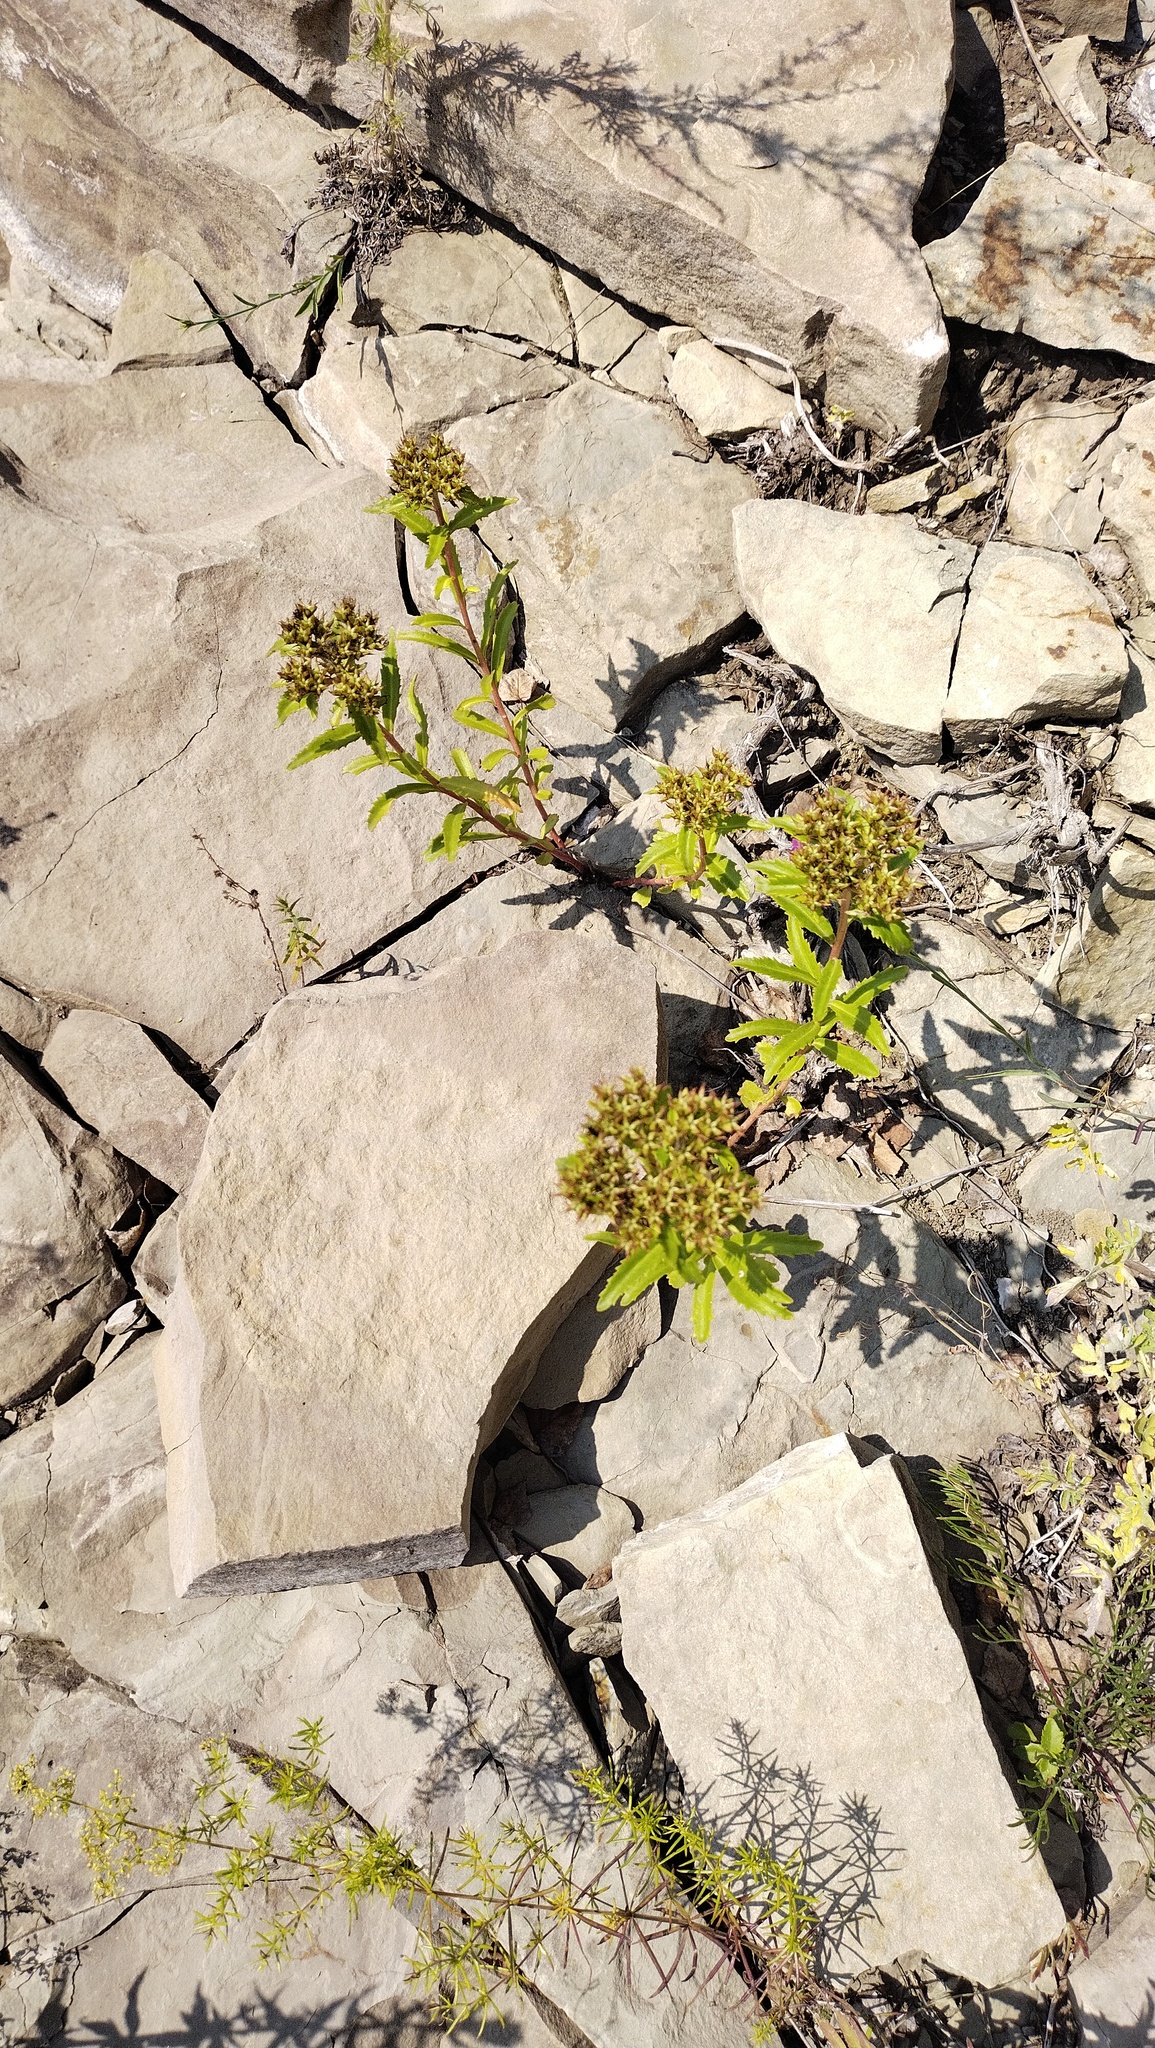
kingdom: Plantae
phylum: Tracheophyta
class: Magnoliopsida
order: Saxifragales
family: Crassulaceae
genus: Phedimus
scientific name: Phedimus aizoon
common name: Orpin aizoon
